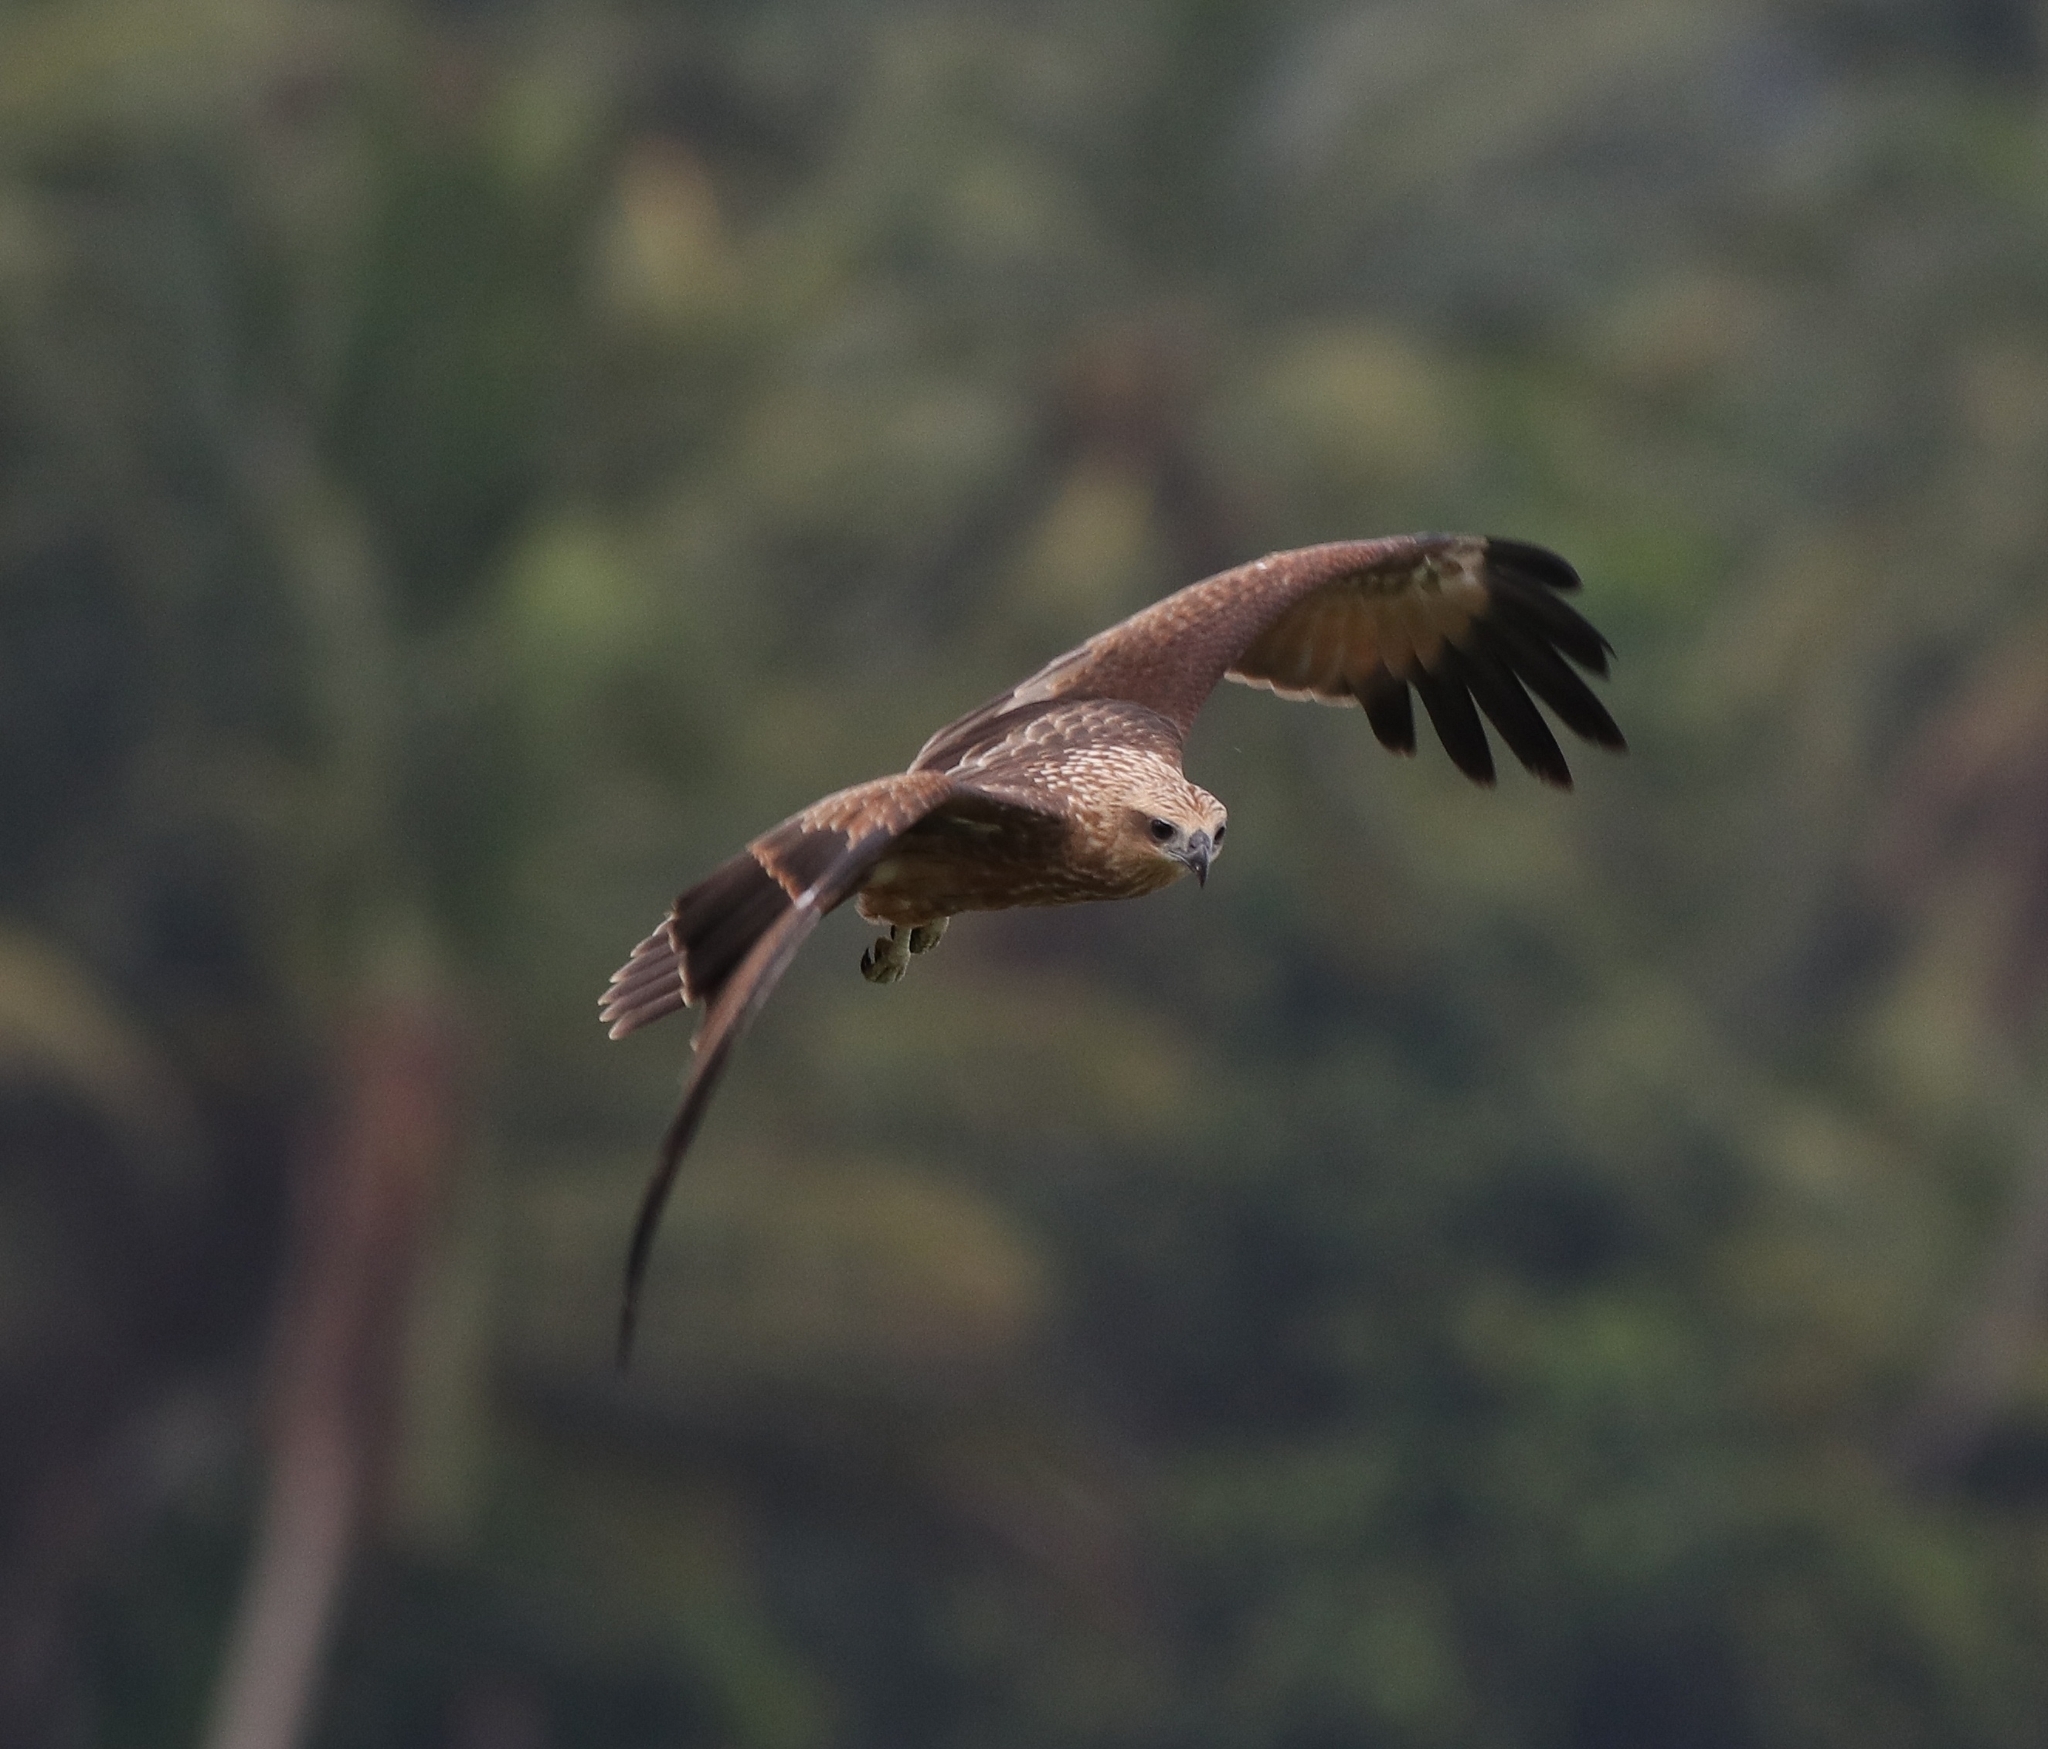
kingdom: Animalia
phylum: Chordata
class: Aves
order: Accipitriformes
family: Accipitridae
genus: Haliastur
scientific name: Haliastur indus
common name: Brahminy kite
